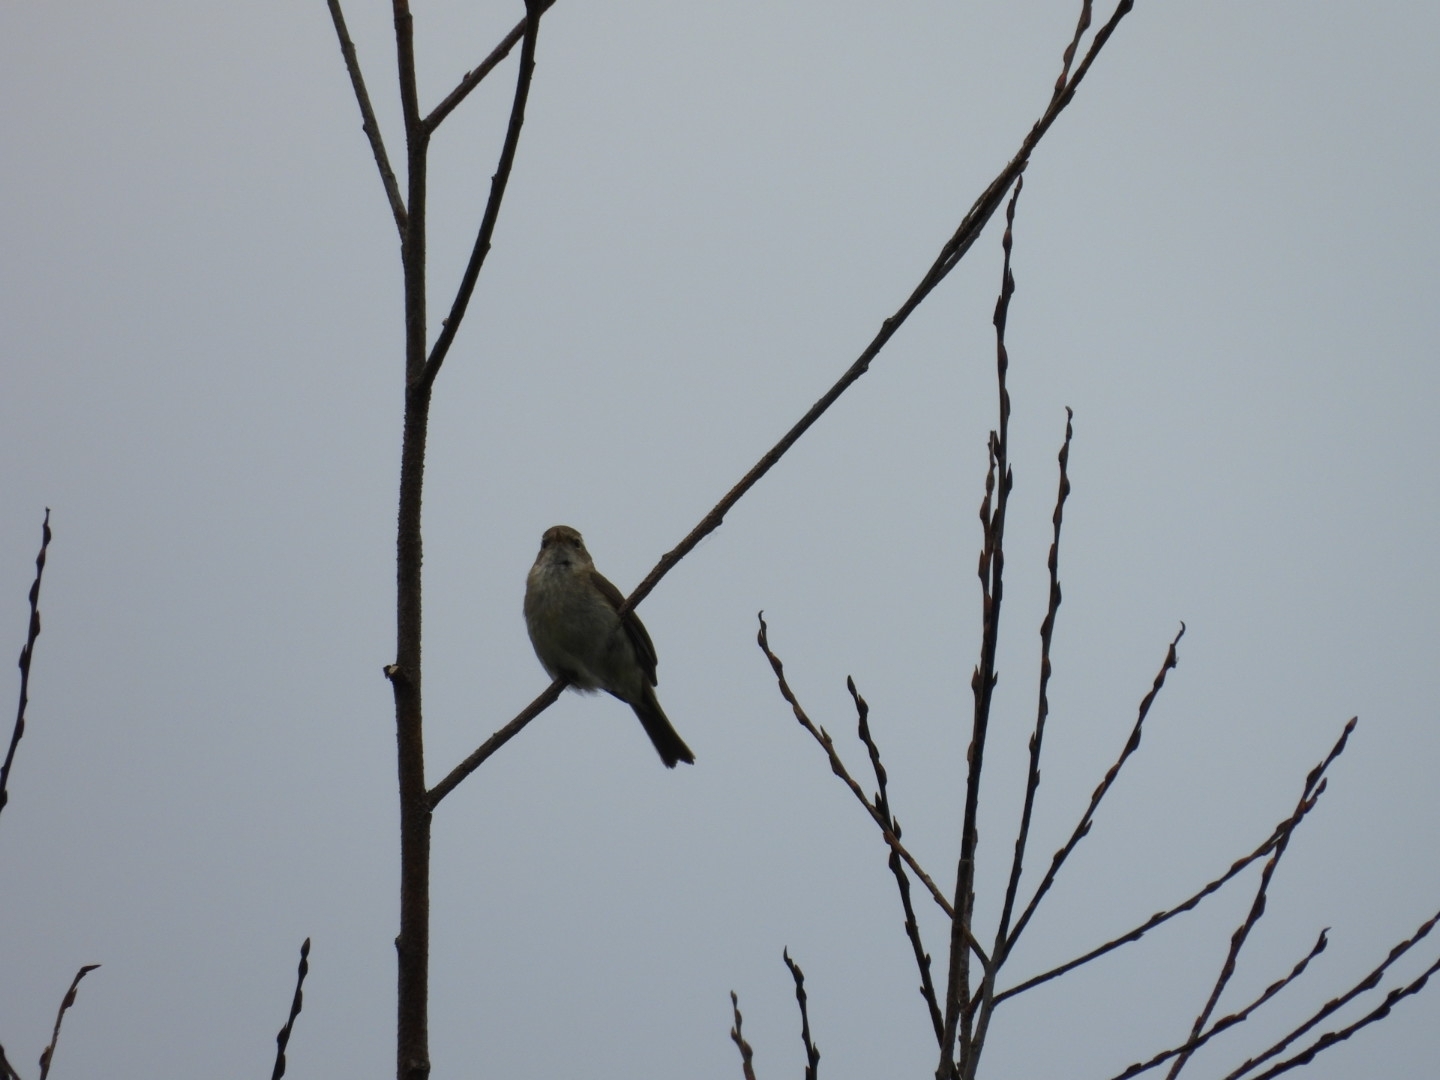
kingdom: Animalia
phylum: Chordata
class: Aves
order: Passeriformes
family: Phylloscopidae
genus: Phylloscopus
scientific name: Phylloscopus collybita
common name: Common chiffchaff
